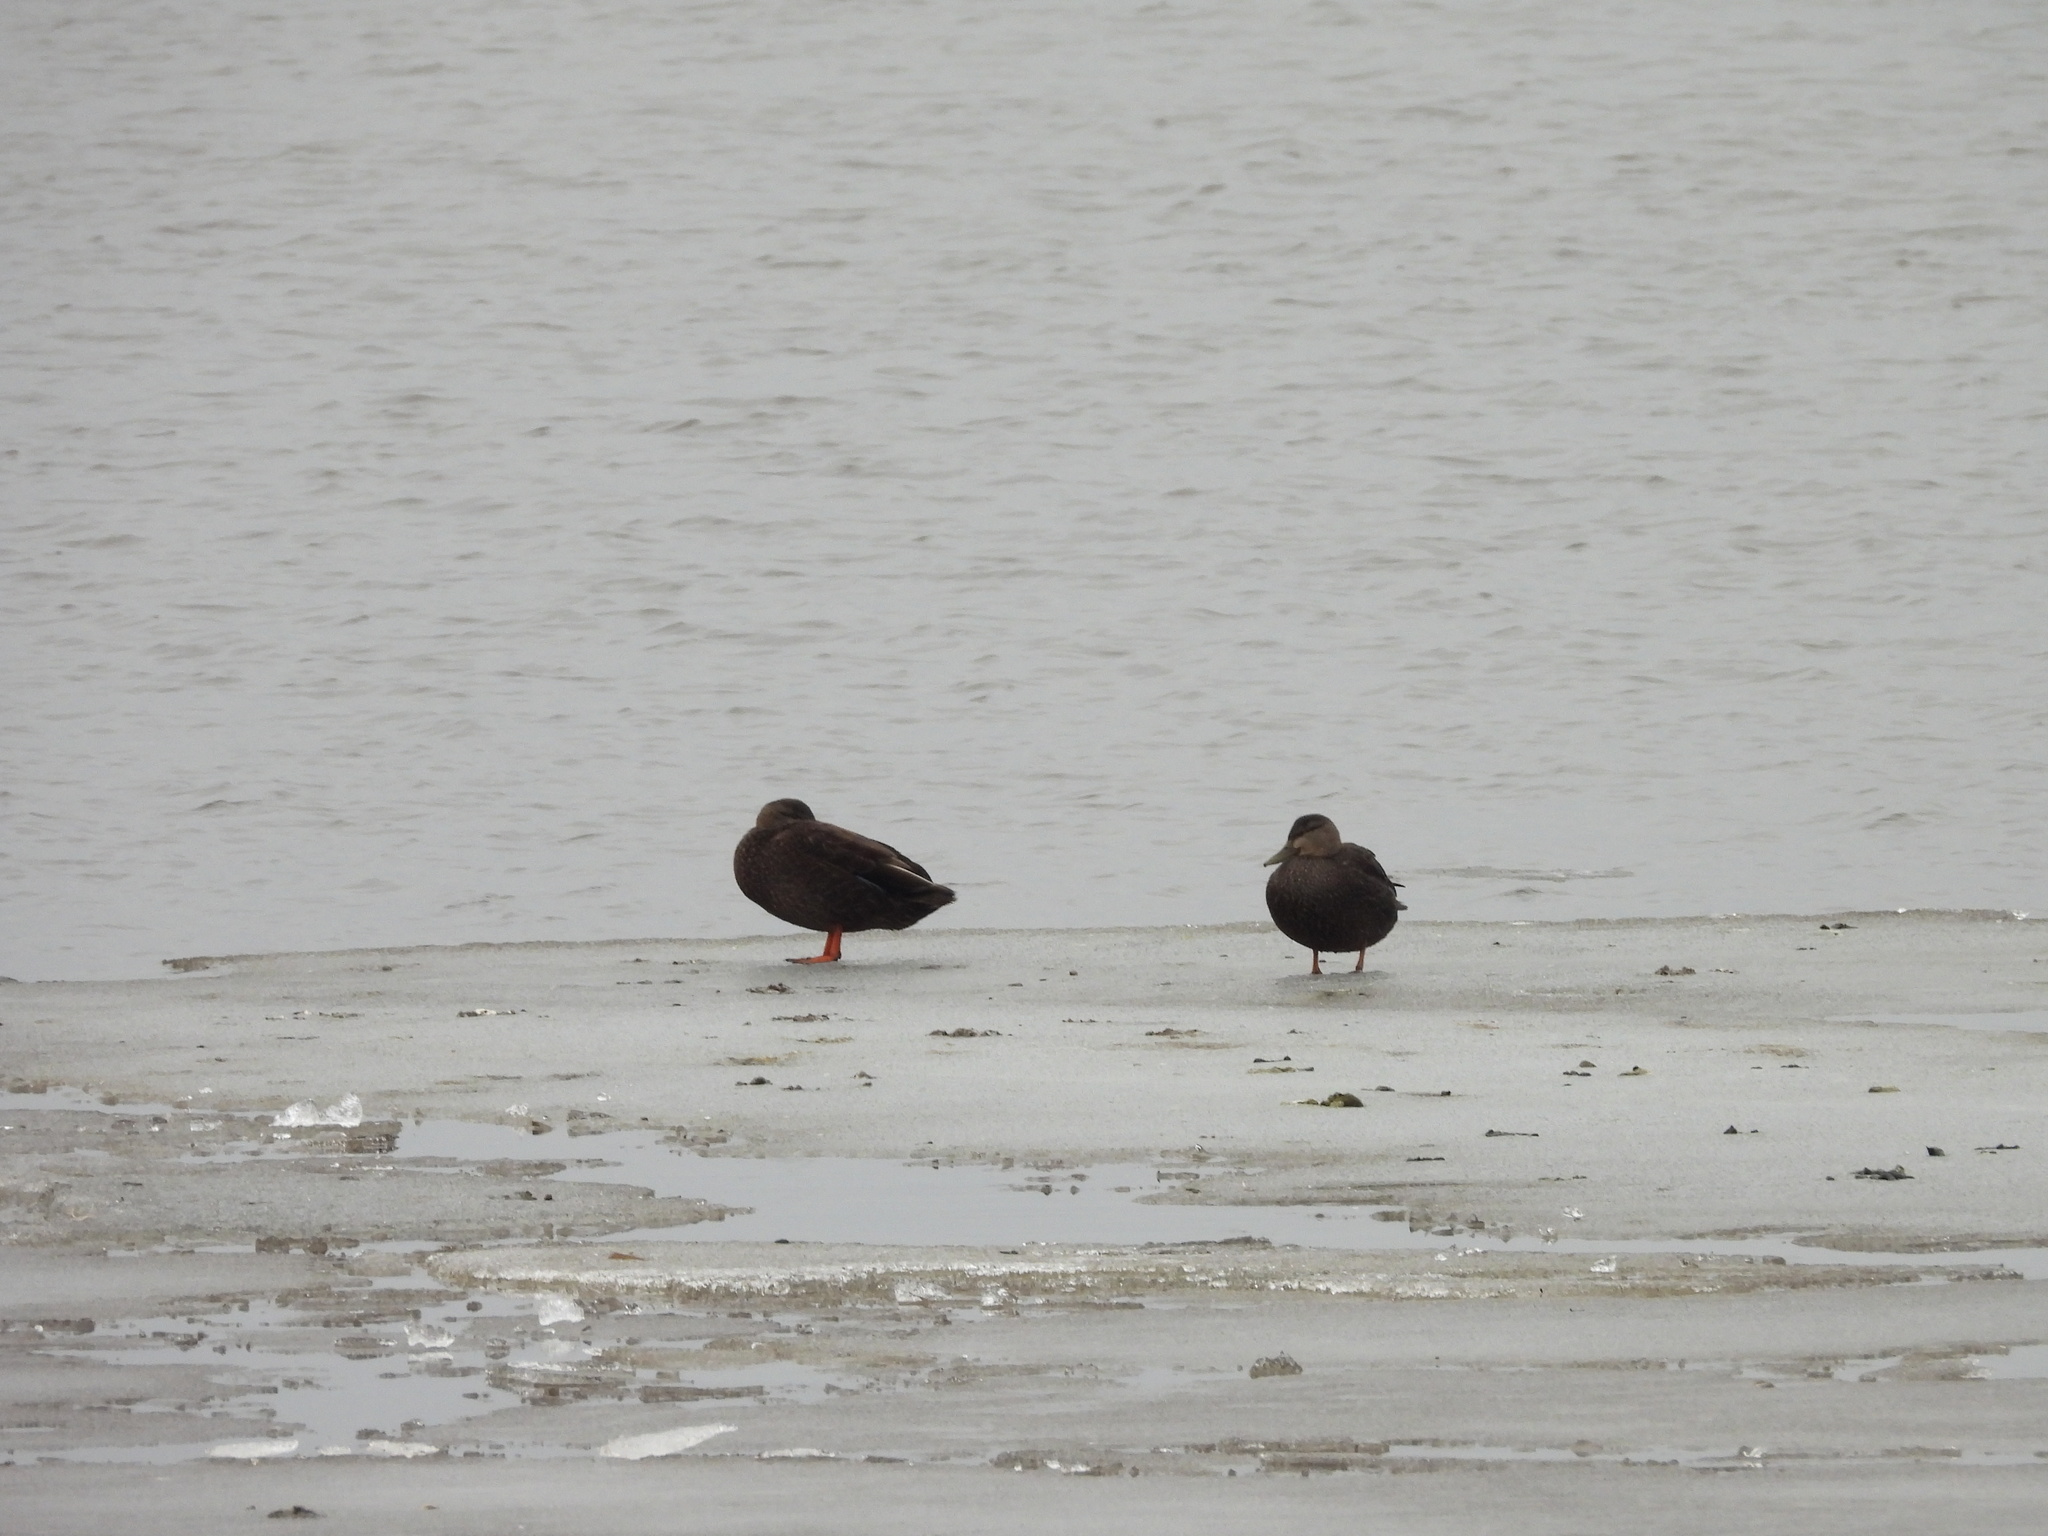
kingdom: Animalia
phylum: Chordata
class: Aves
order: Anseriformes
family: Anatidae
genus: Anas
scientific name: Anas rubripes
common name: American black duck
